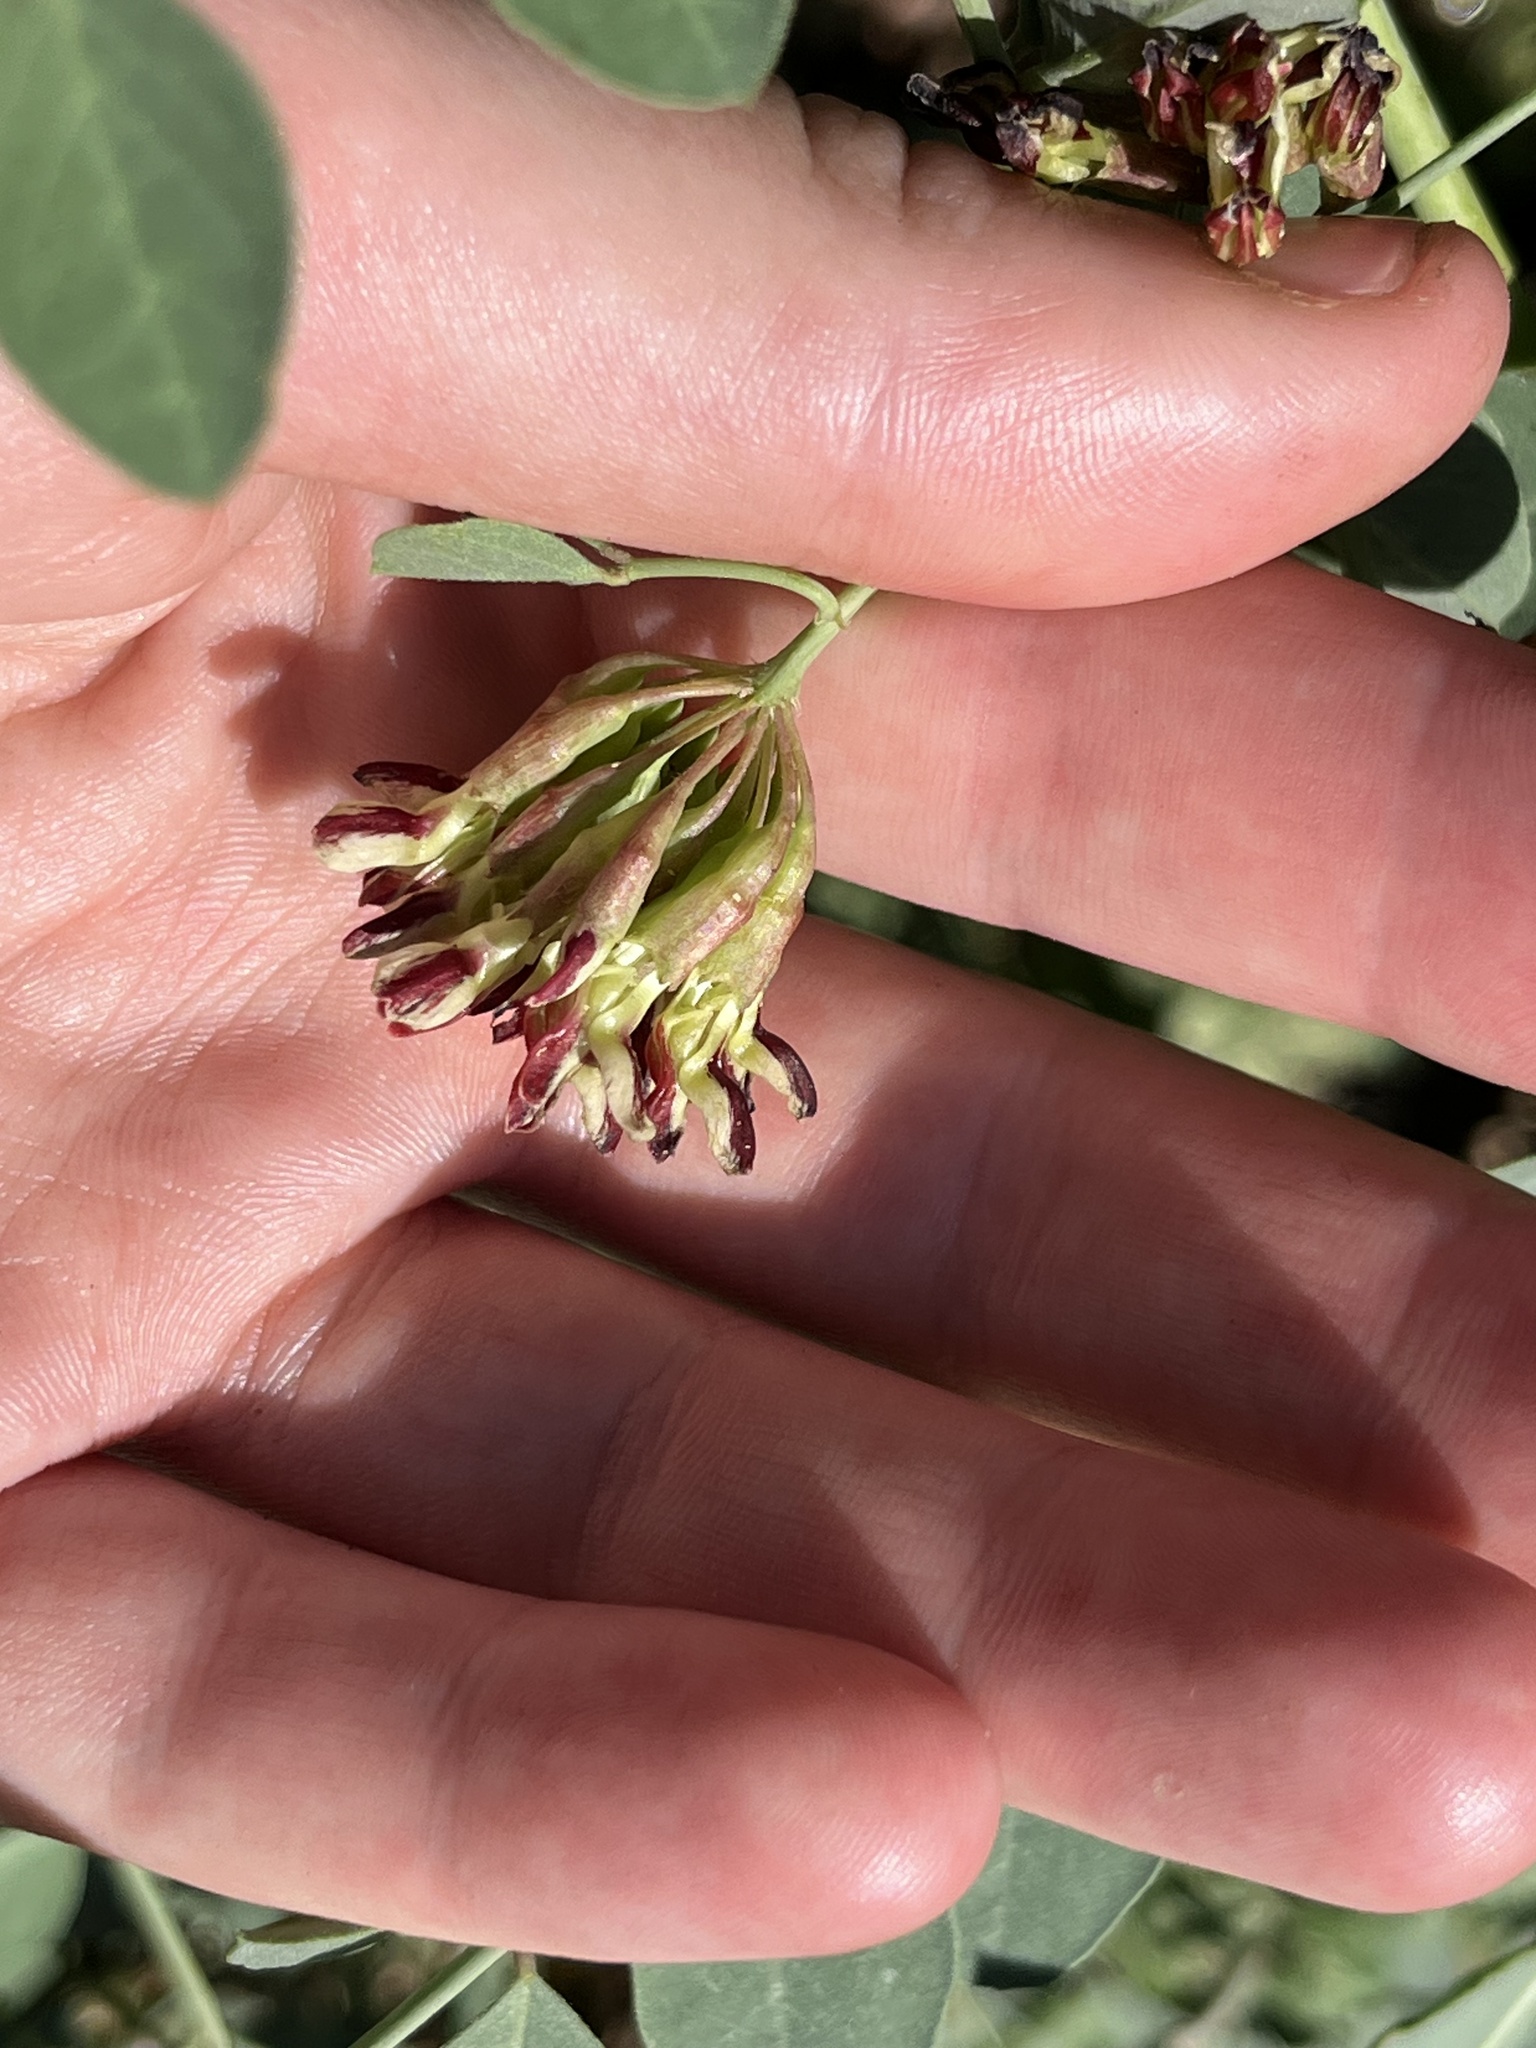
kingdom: Plantae
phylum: Tracheophyta
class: Magnoliopsida
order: Fabales
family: Fabaceae
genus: Hosackia
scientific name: Hosackia crassifolia
